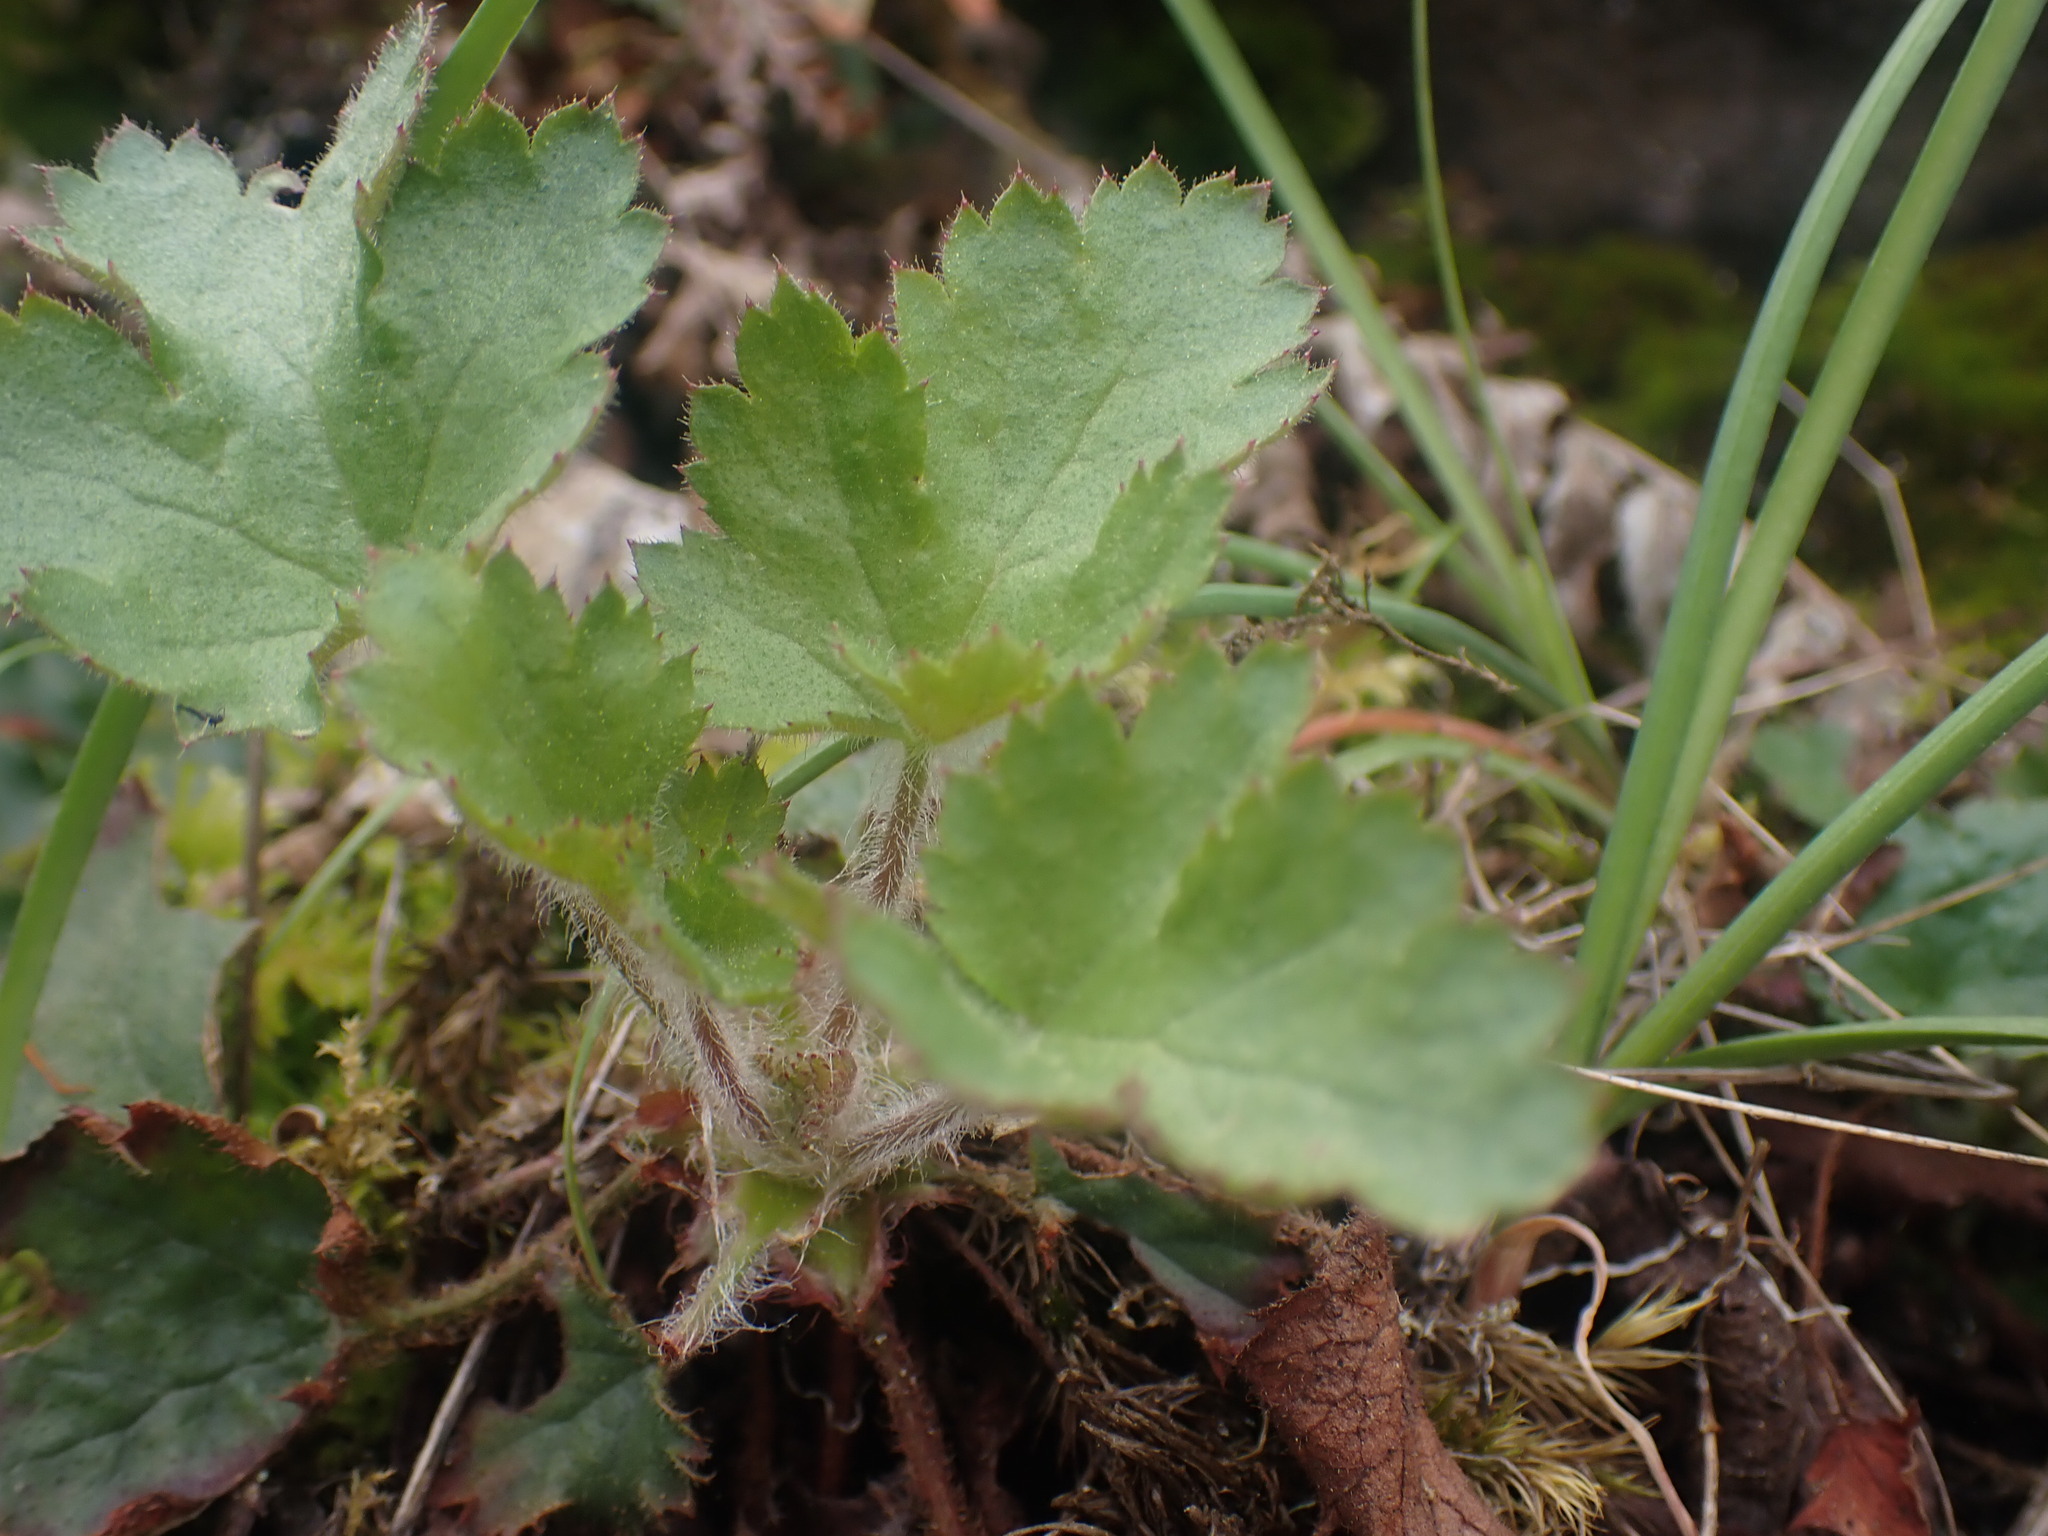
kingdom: Plantae
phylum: Tracheophyta
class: Magnoliopsida
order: Saxifragales
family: Saxifragaceae
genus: Heuchera
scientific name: Heuchera micrantha
